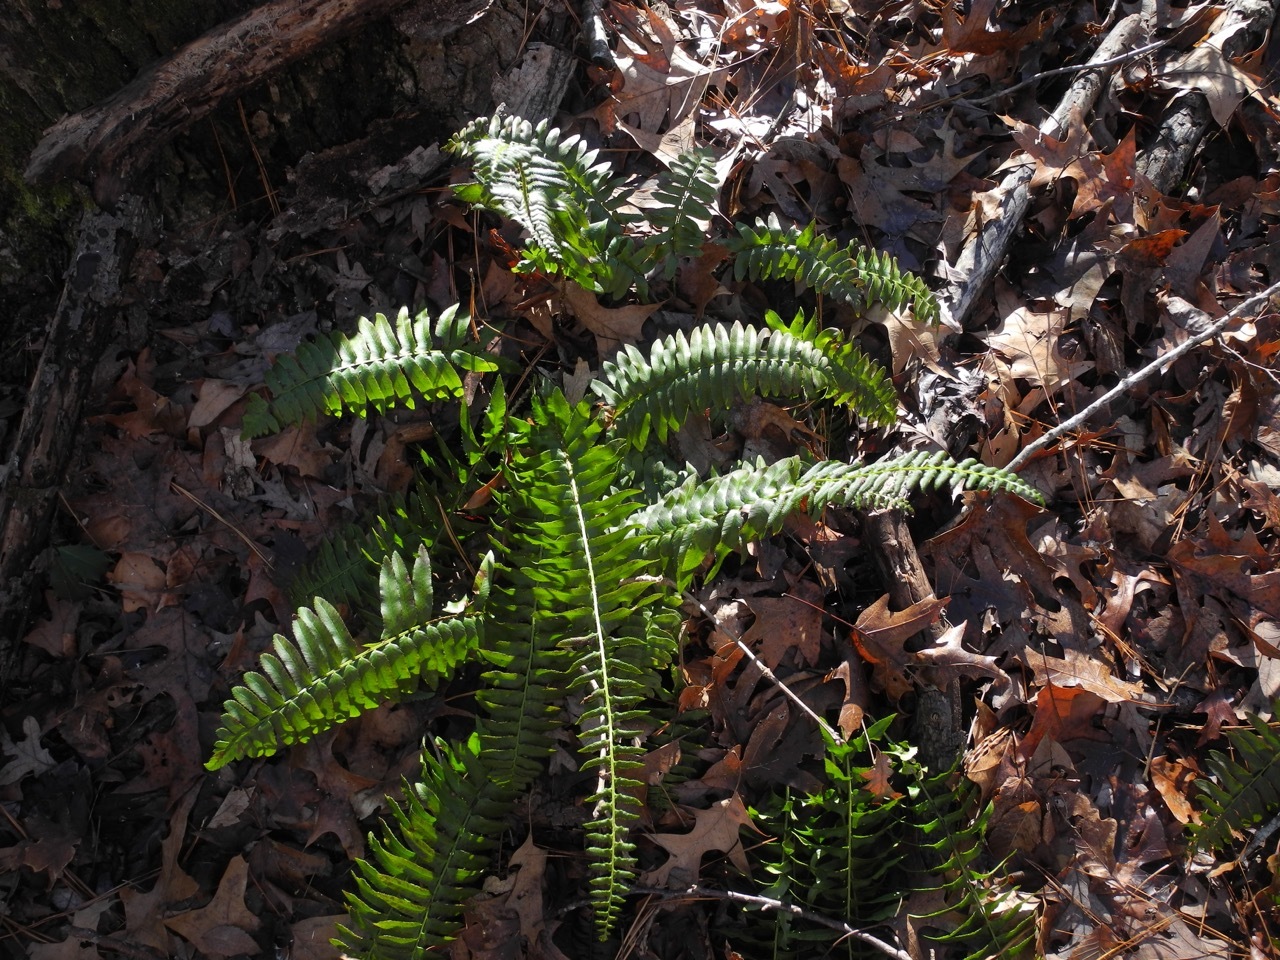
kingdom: Plantae
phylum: Tracheophyta
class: Polypodiopsida
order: Polypodiales
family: Dryopteridaceae
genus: Polystichum
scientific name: Polystichum acrostichoides
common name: Christmas fern
